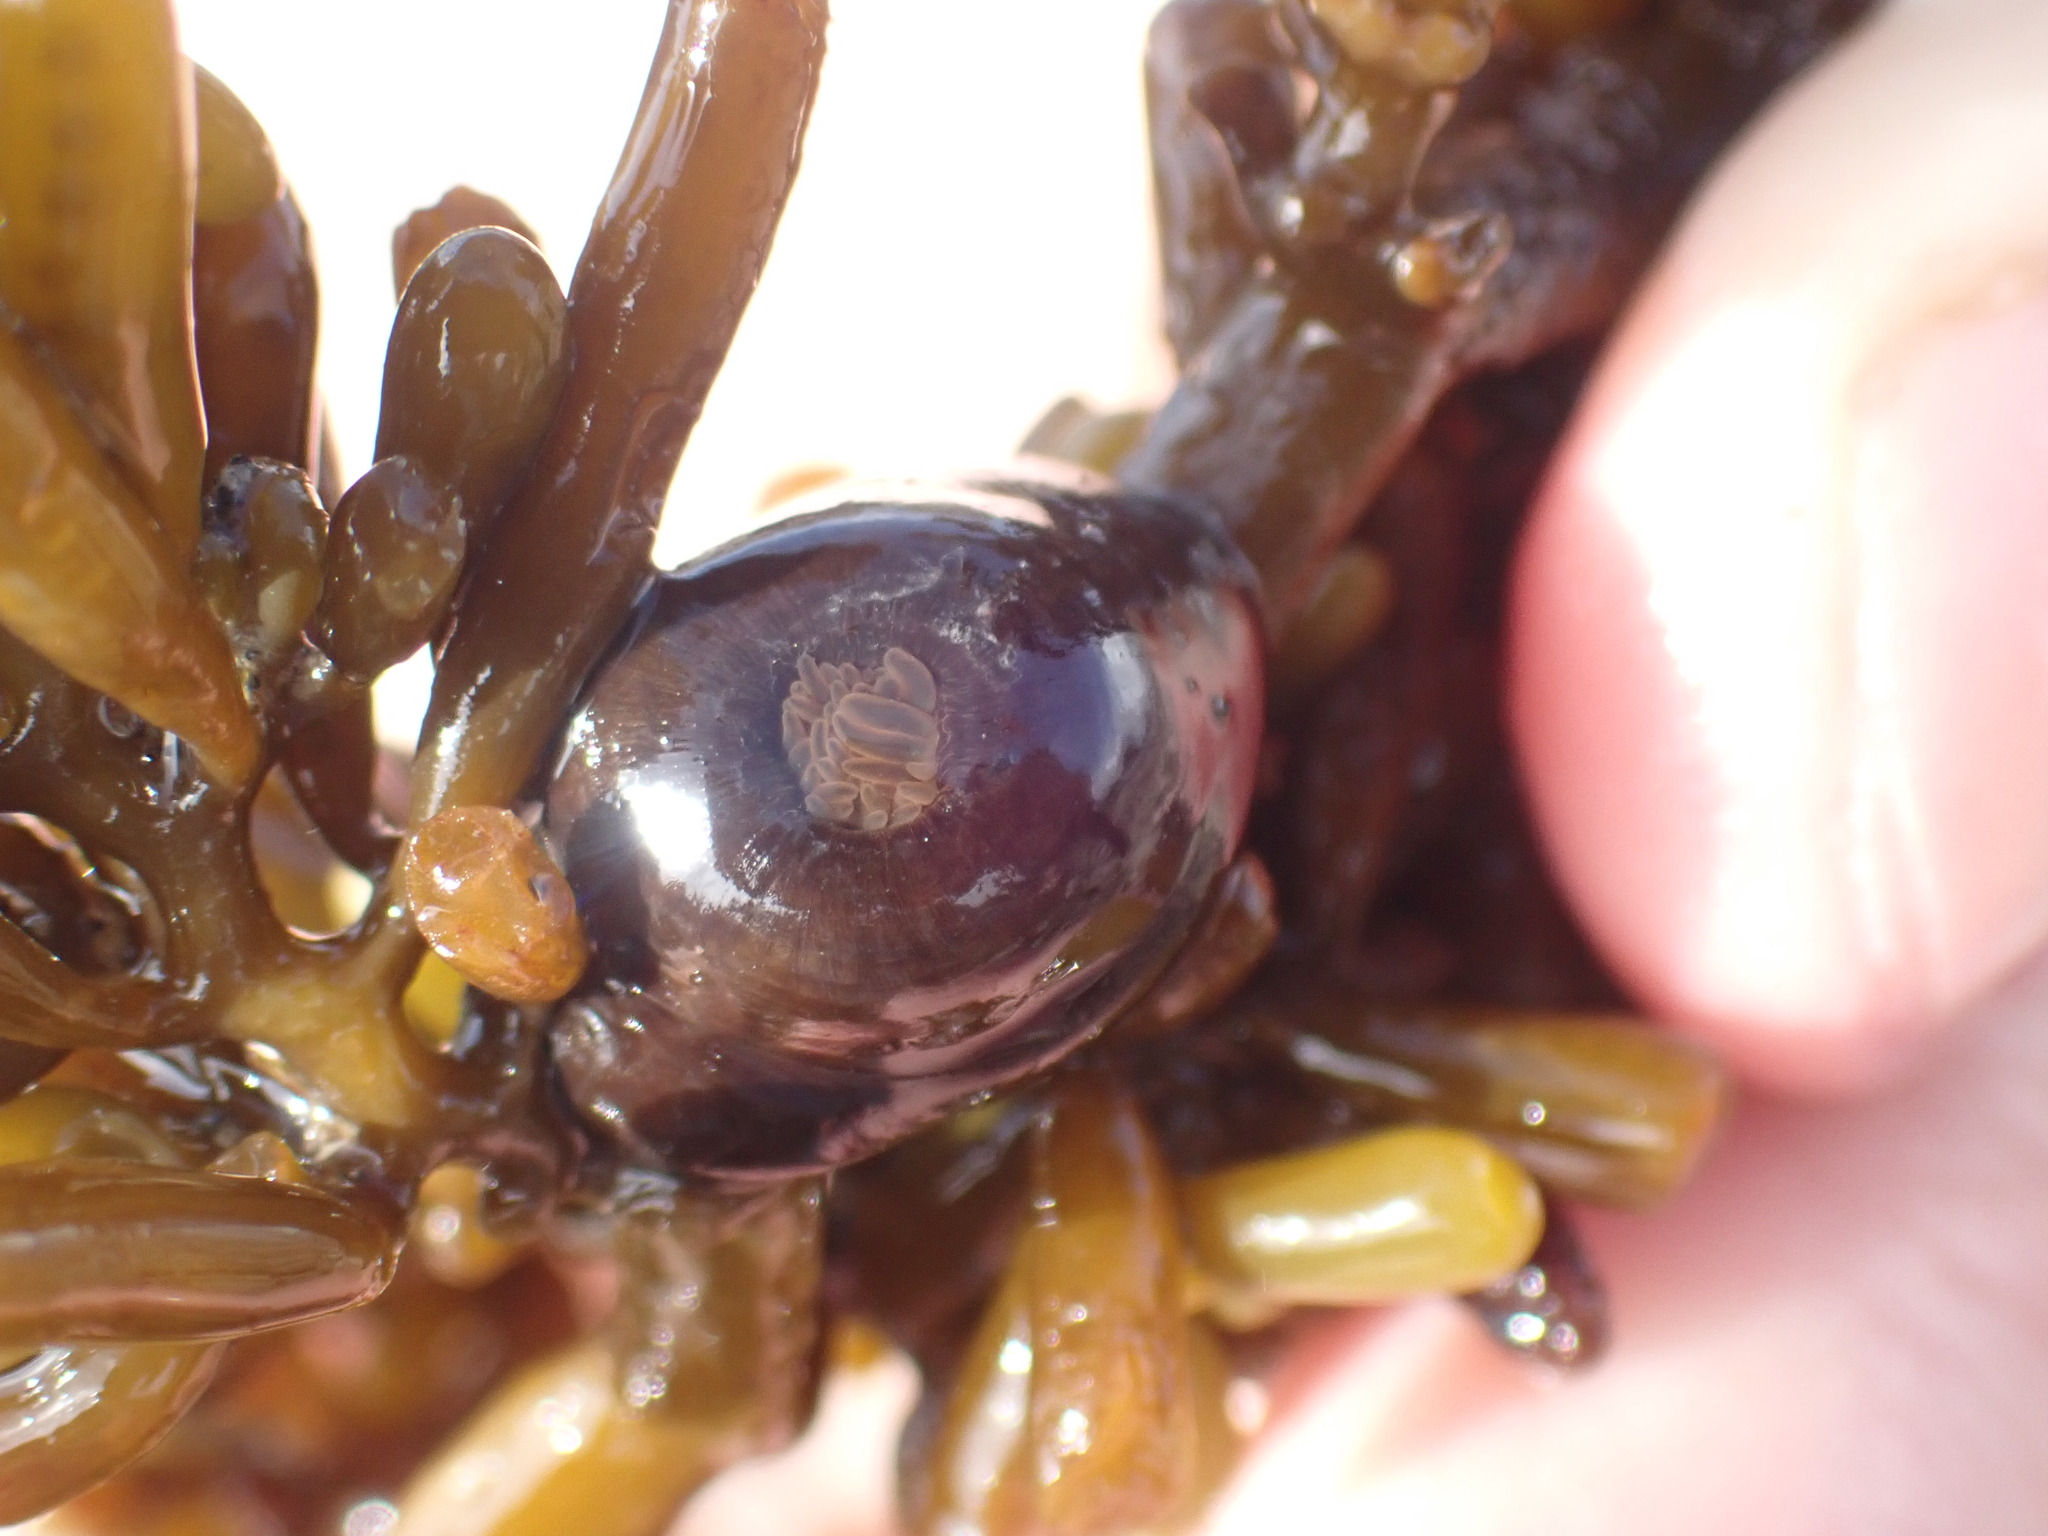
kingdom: Animalia
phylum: Cnidaria
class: Anthozoa
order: Actiniaria
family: Hormathiidae
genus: Handactis
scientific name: Handactis nutrix
